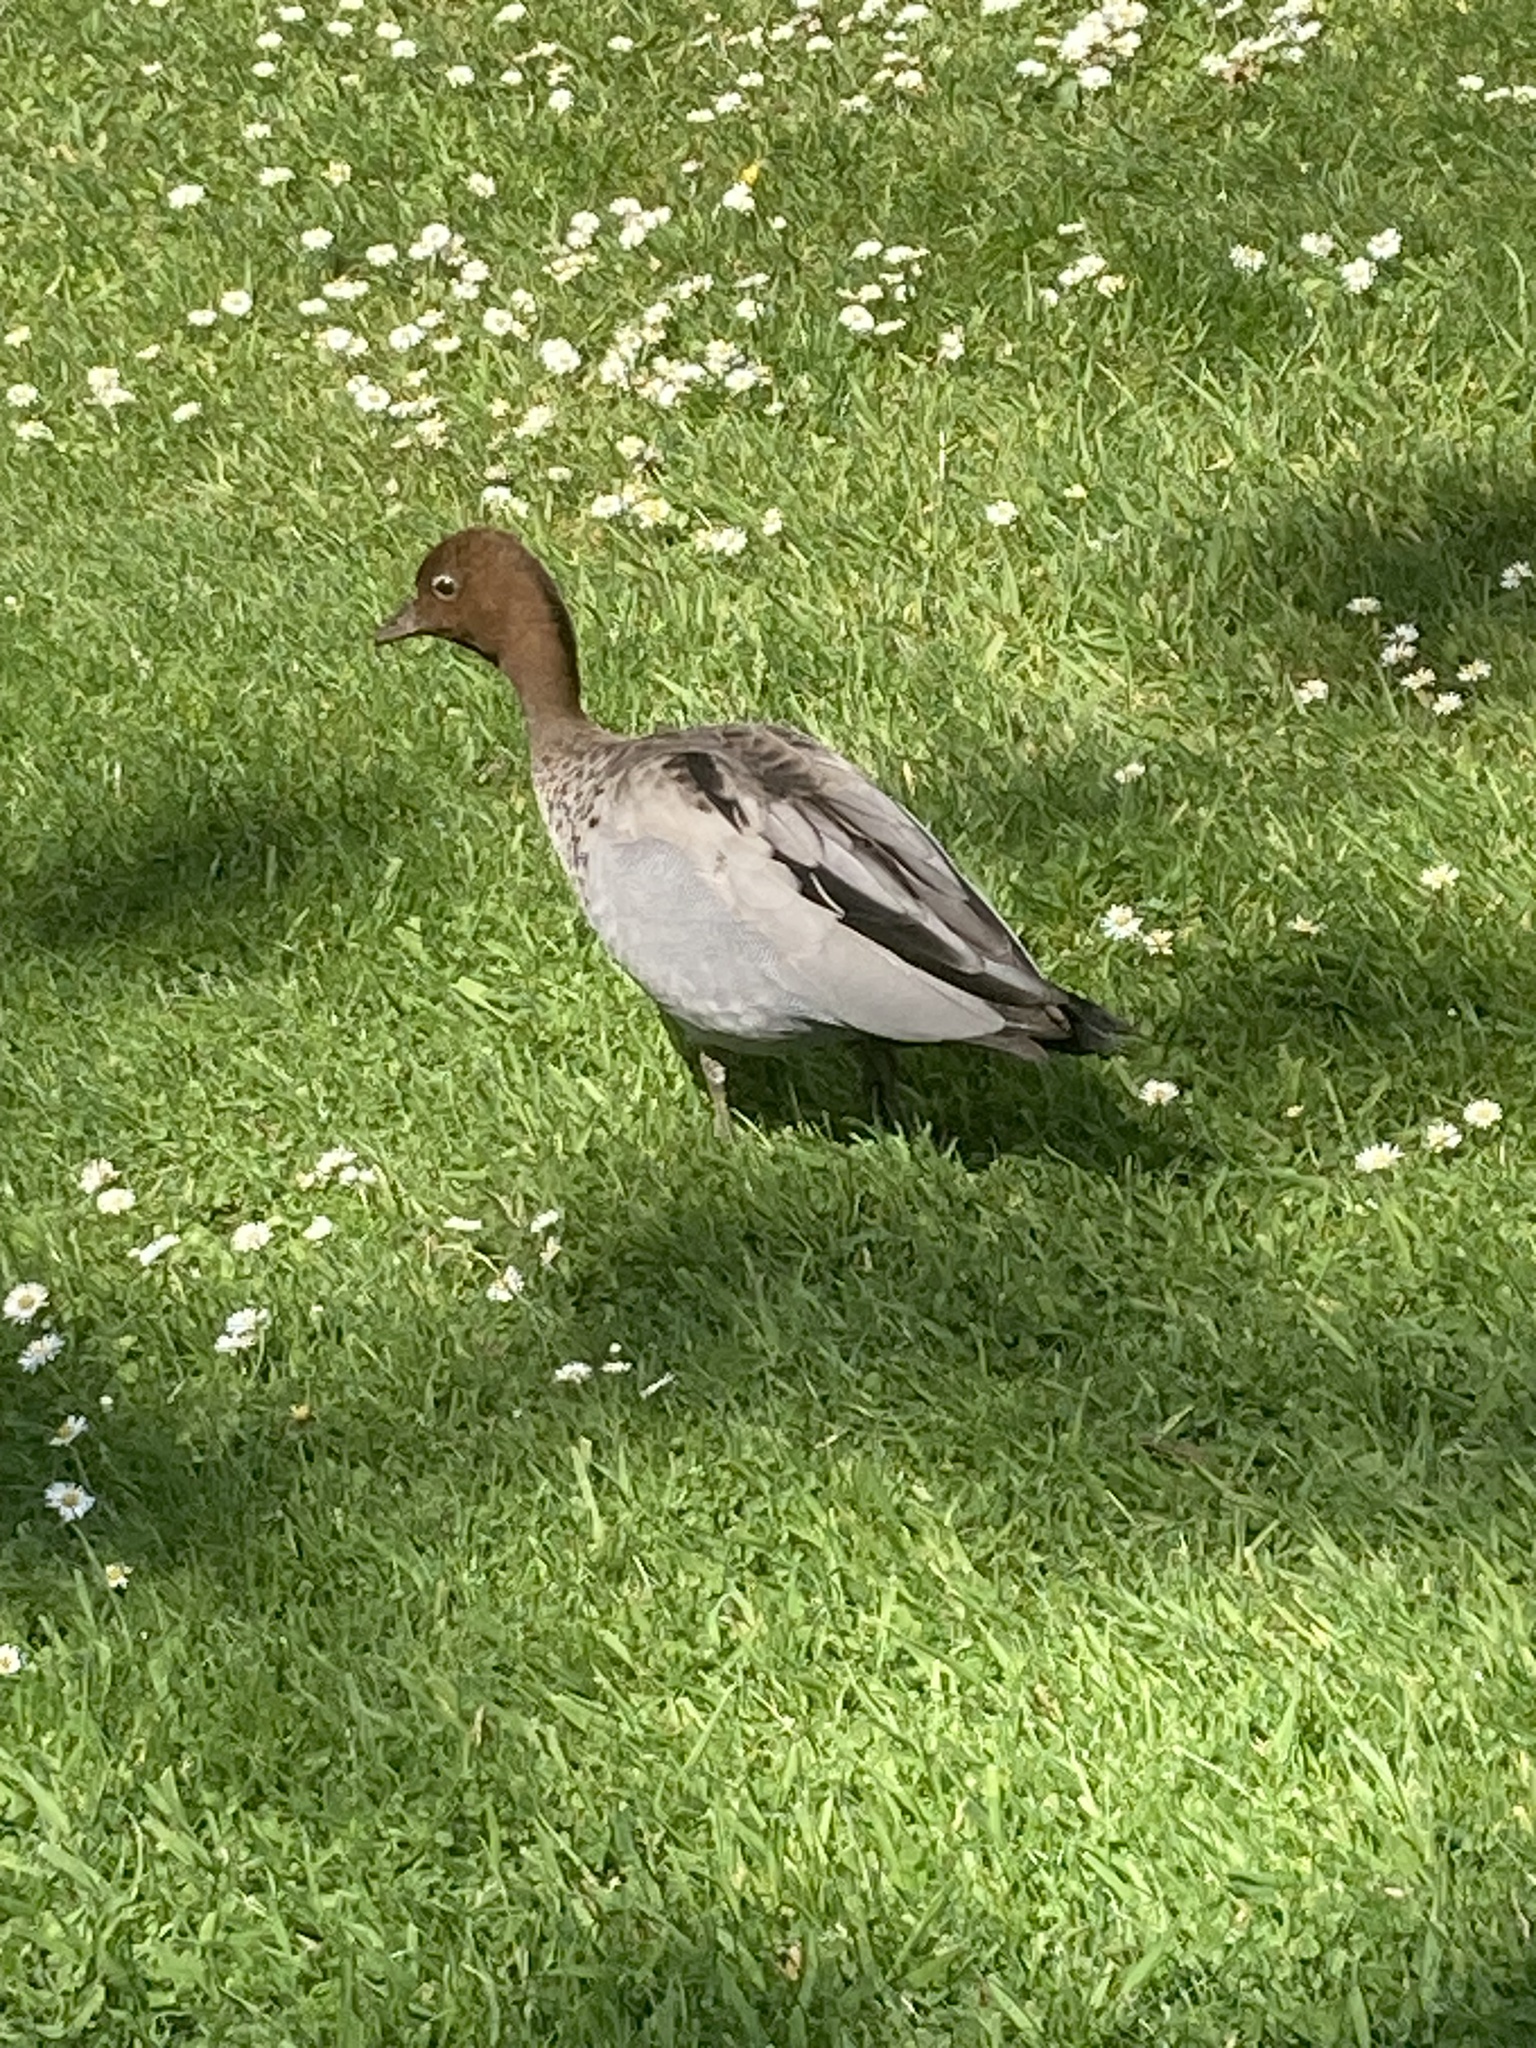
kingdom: Animalia
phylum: Chordata
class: Aves
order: Anseriformes
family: Anatidae
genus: Chenonetta
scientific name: Chenonetta jubata
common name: Maned duck
